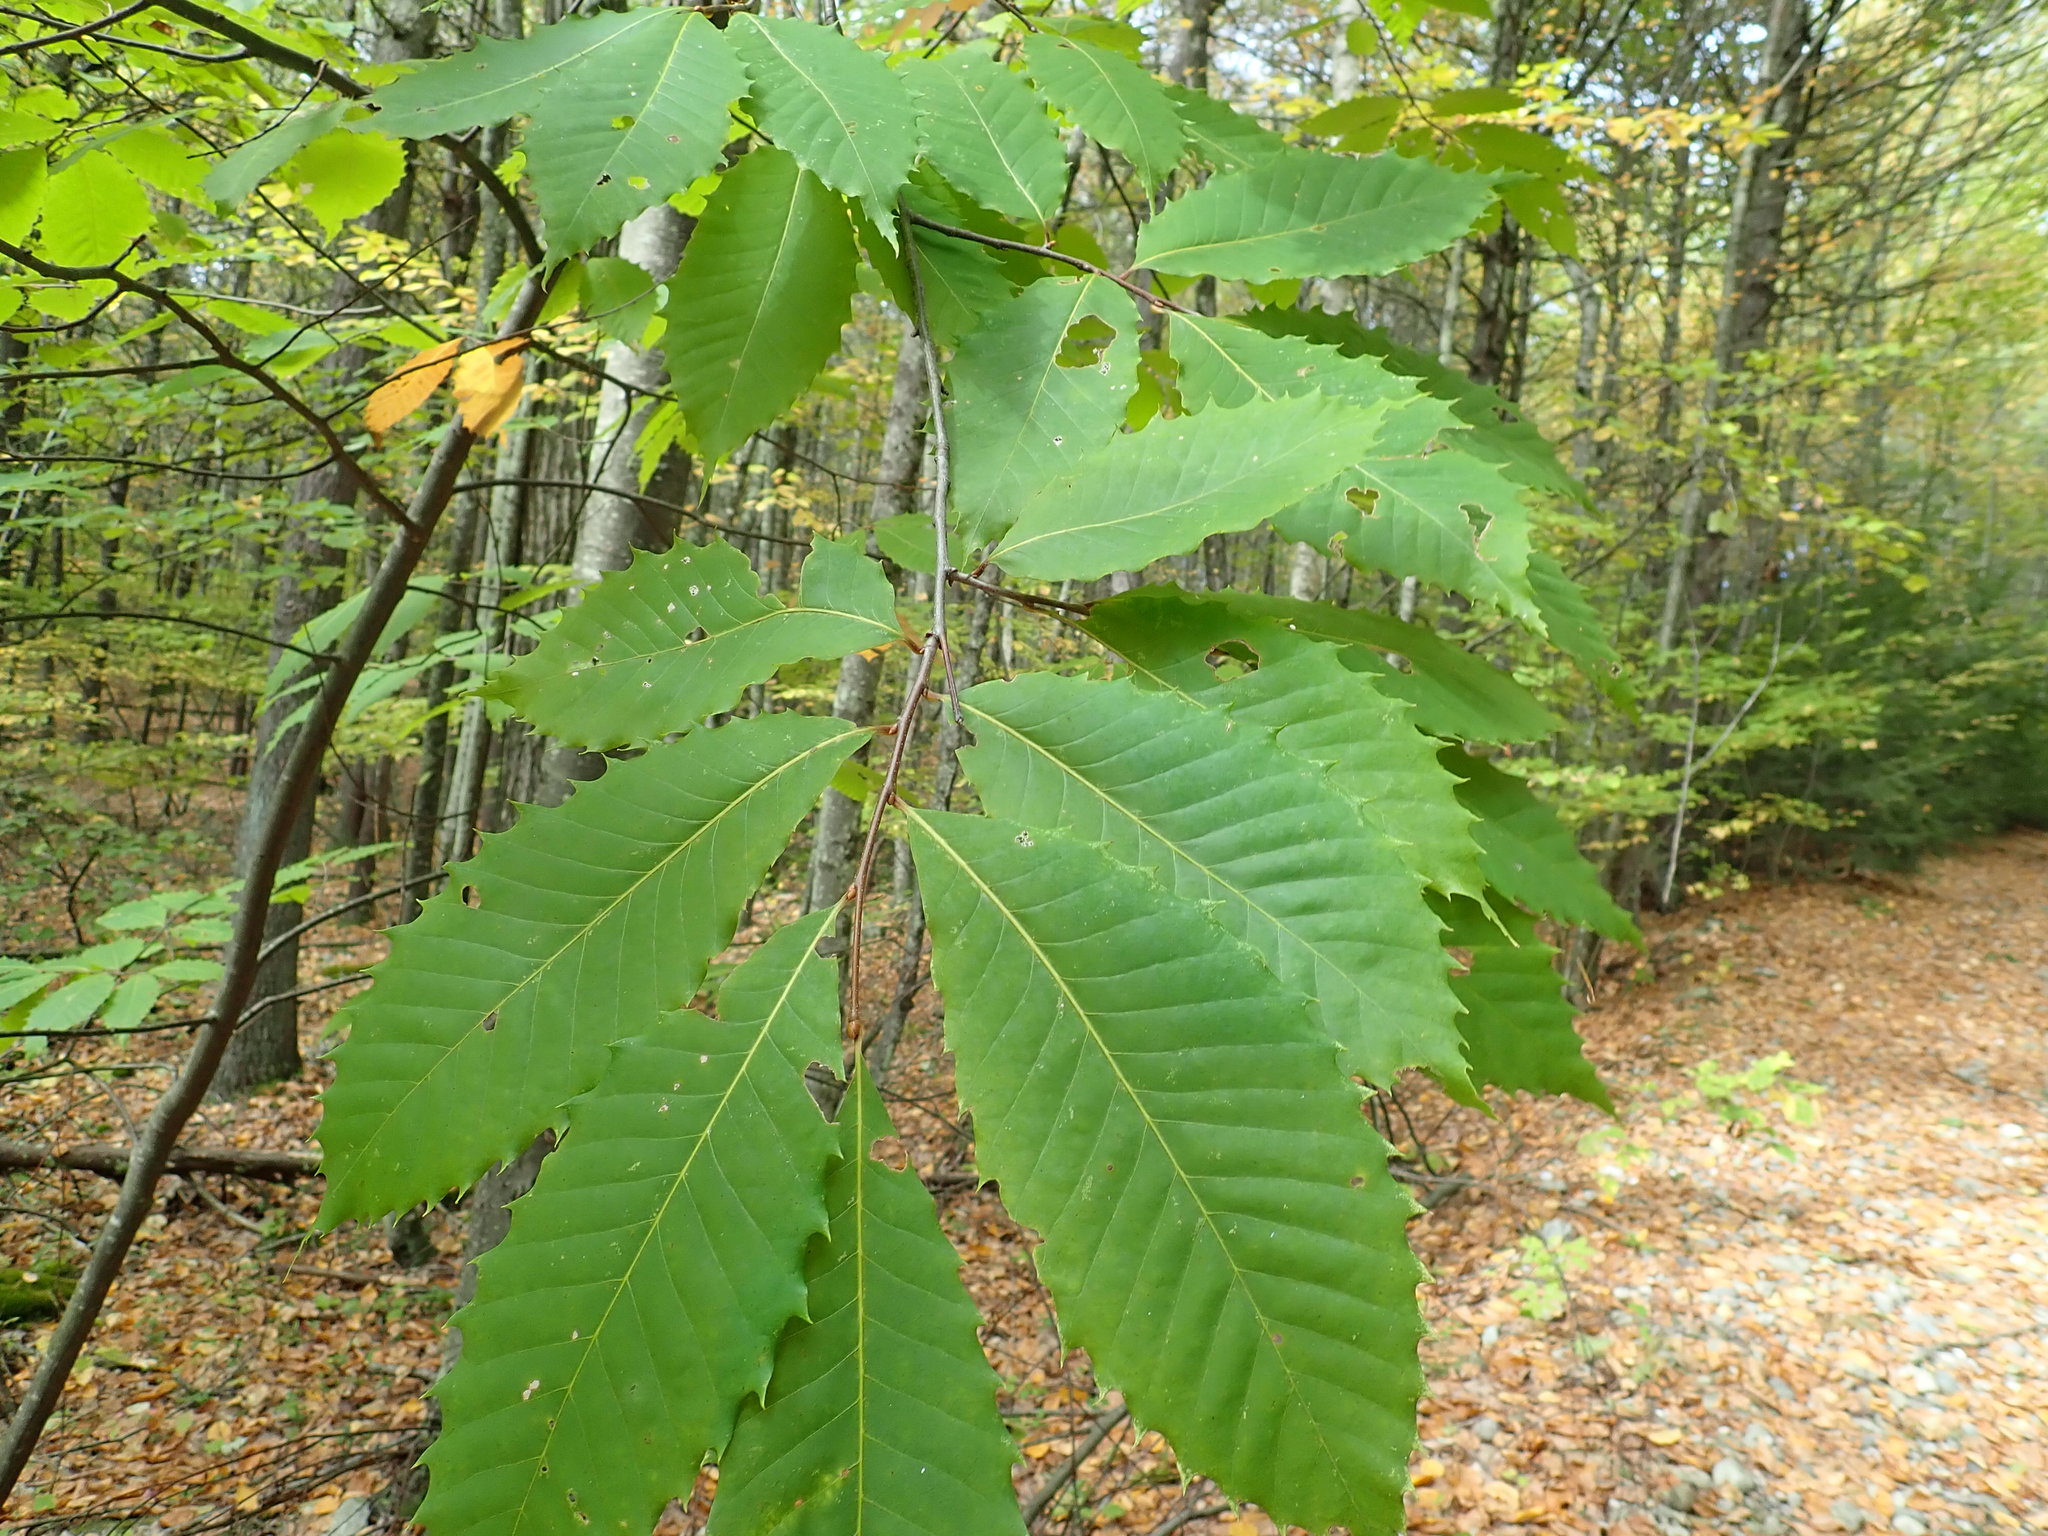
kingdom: Plantae
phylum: Tracheophyta
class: Magnoliopsida
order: Fagales
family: Fagaceae
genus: Castanea
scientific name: Castanea dentata
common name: American chestnut
